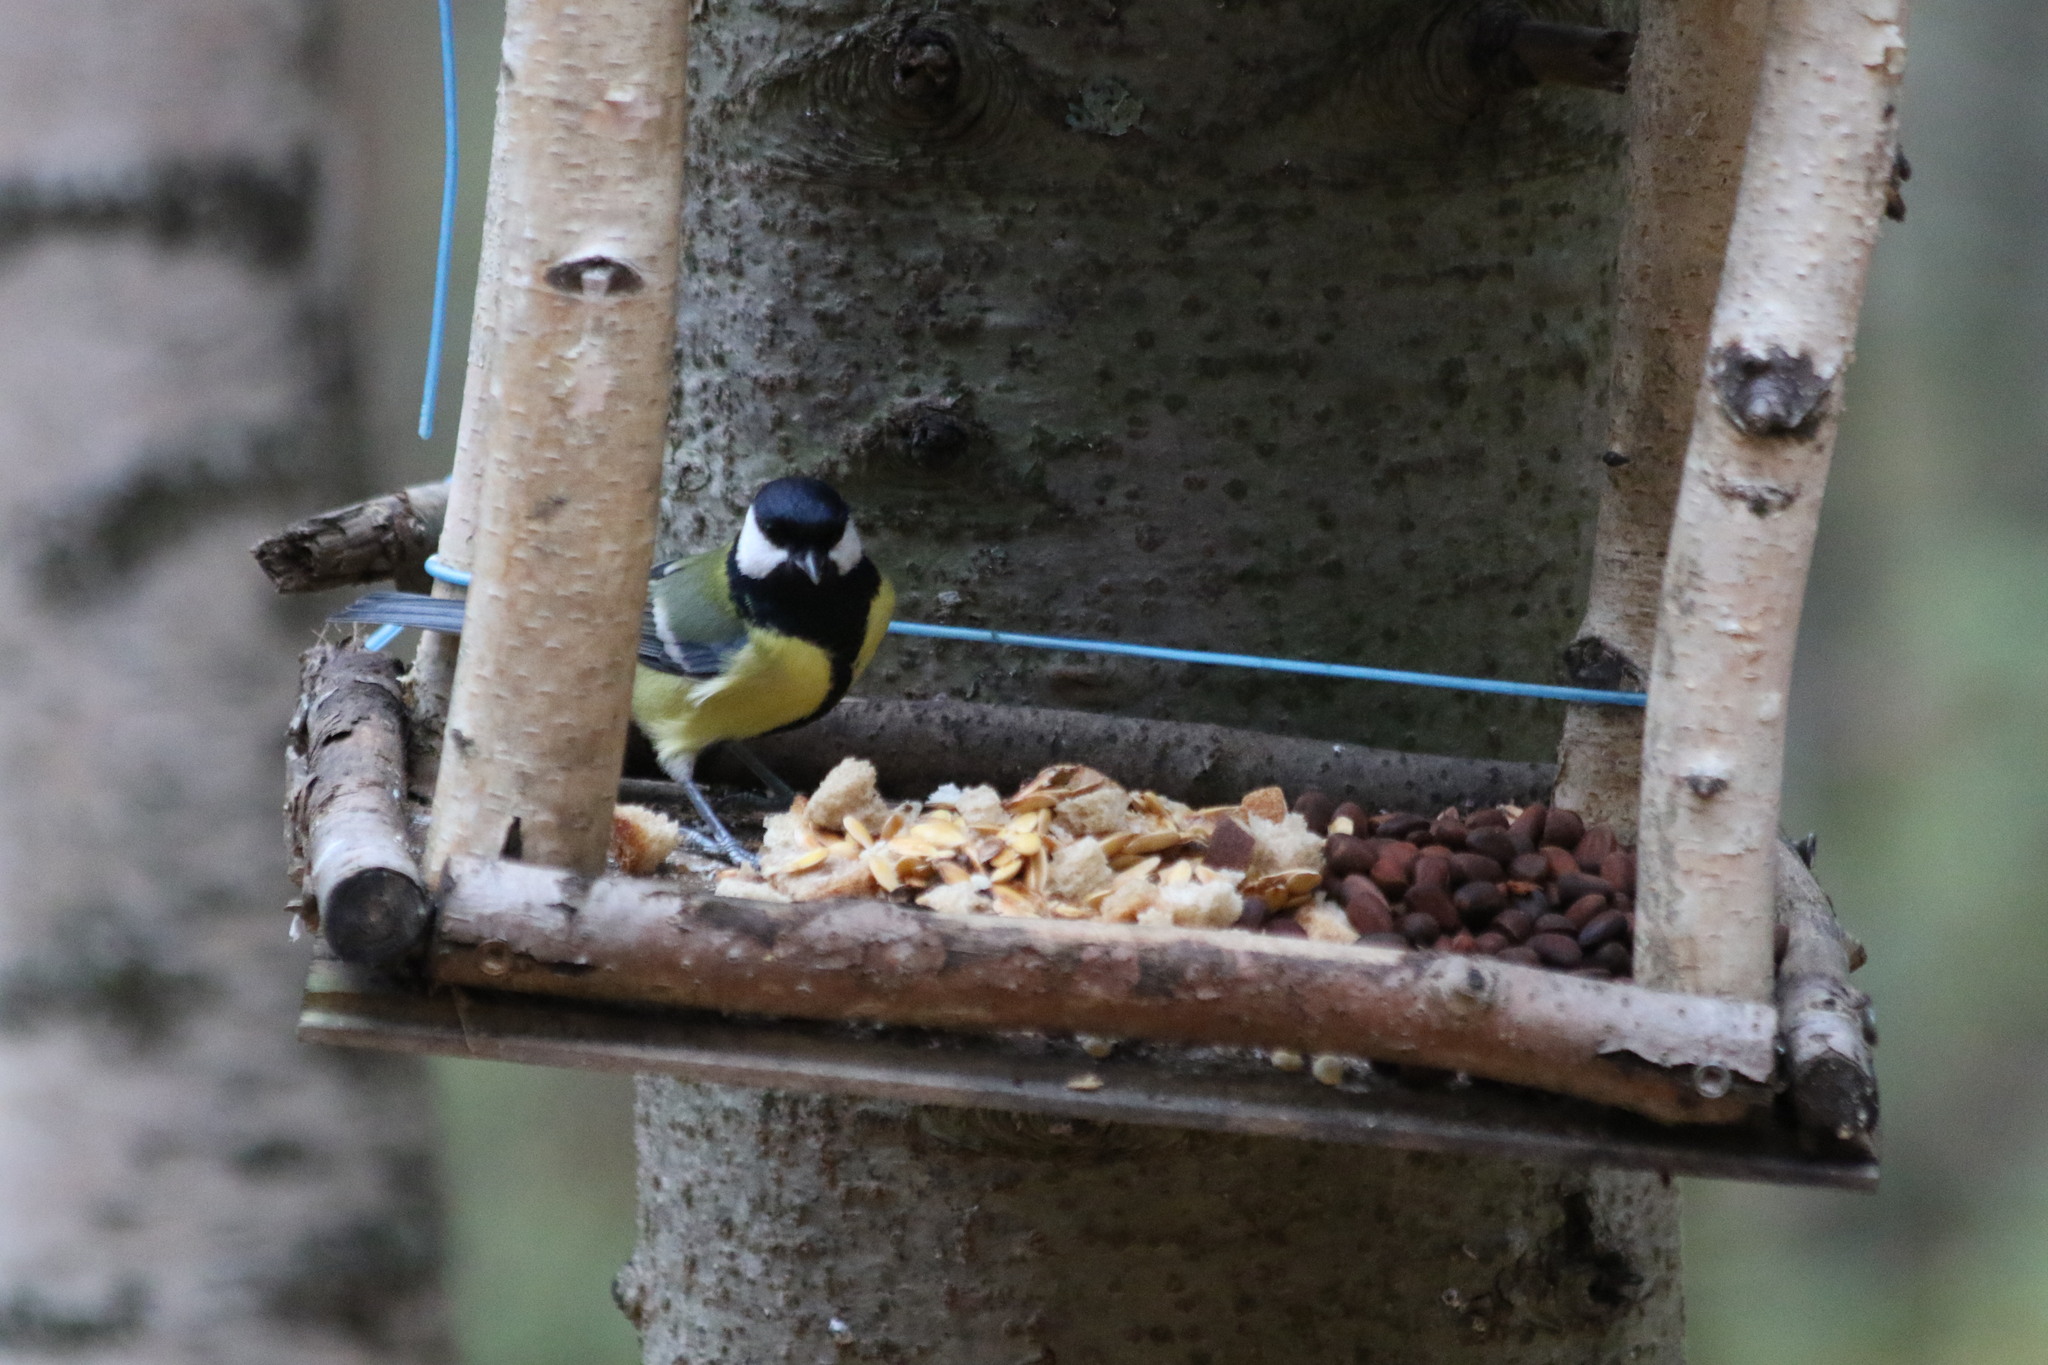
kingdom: Animalia
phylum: Chordata
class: Aves
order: Passeriformes
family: Paridae
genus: Parus
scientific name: Parus major
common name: Great tit
